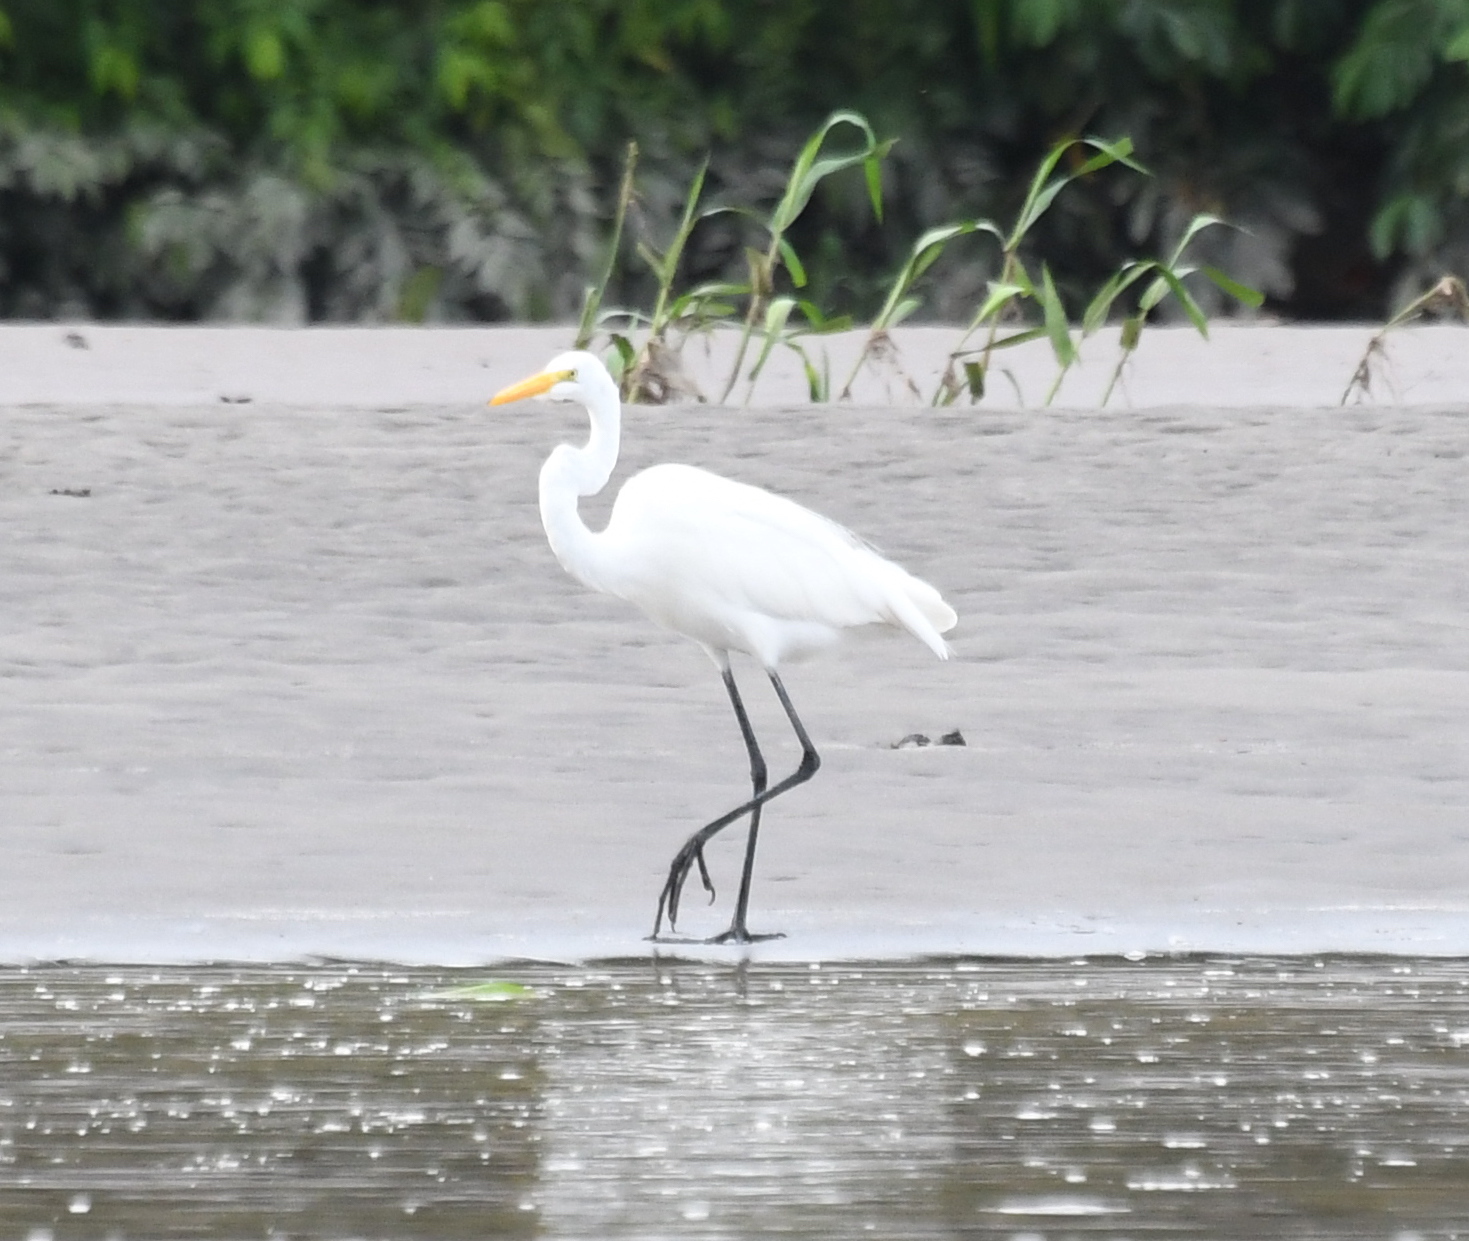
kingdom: Animalia
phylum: Chordata
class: Aves
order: Pelecaniformes
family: Ardeidae
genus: Ardea
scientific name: Ardea alba
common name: Great egret
